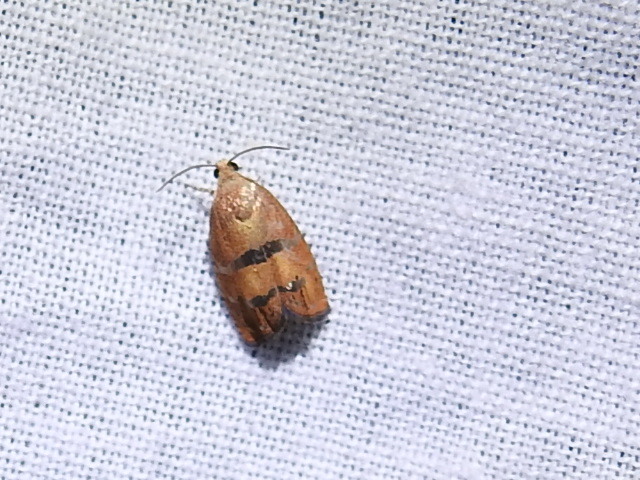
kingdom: Animalia
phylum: Arthropoda
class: Insecta
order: Lepidoptera
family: Tortricidae
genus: Cydia
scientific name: Cydia latiferreana
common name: Filbertworm moth
